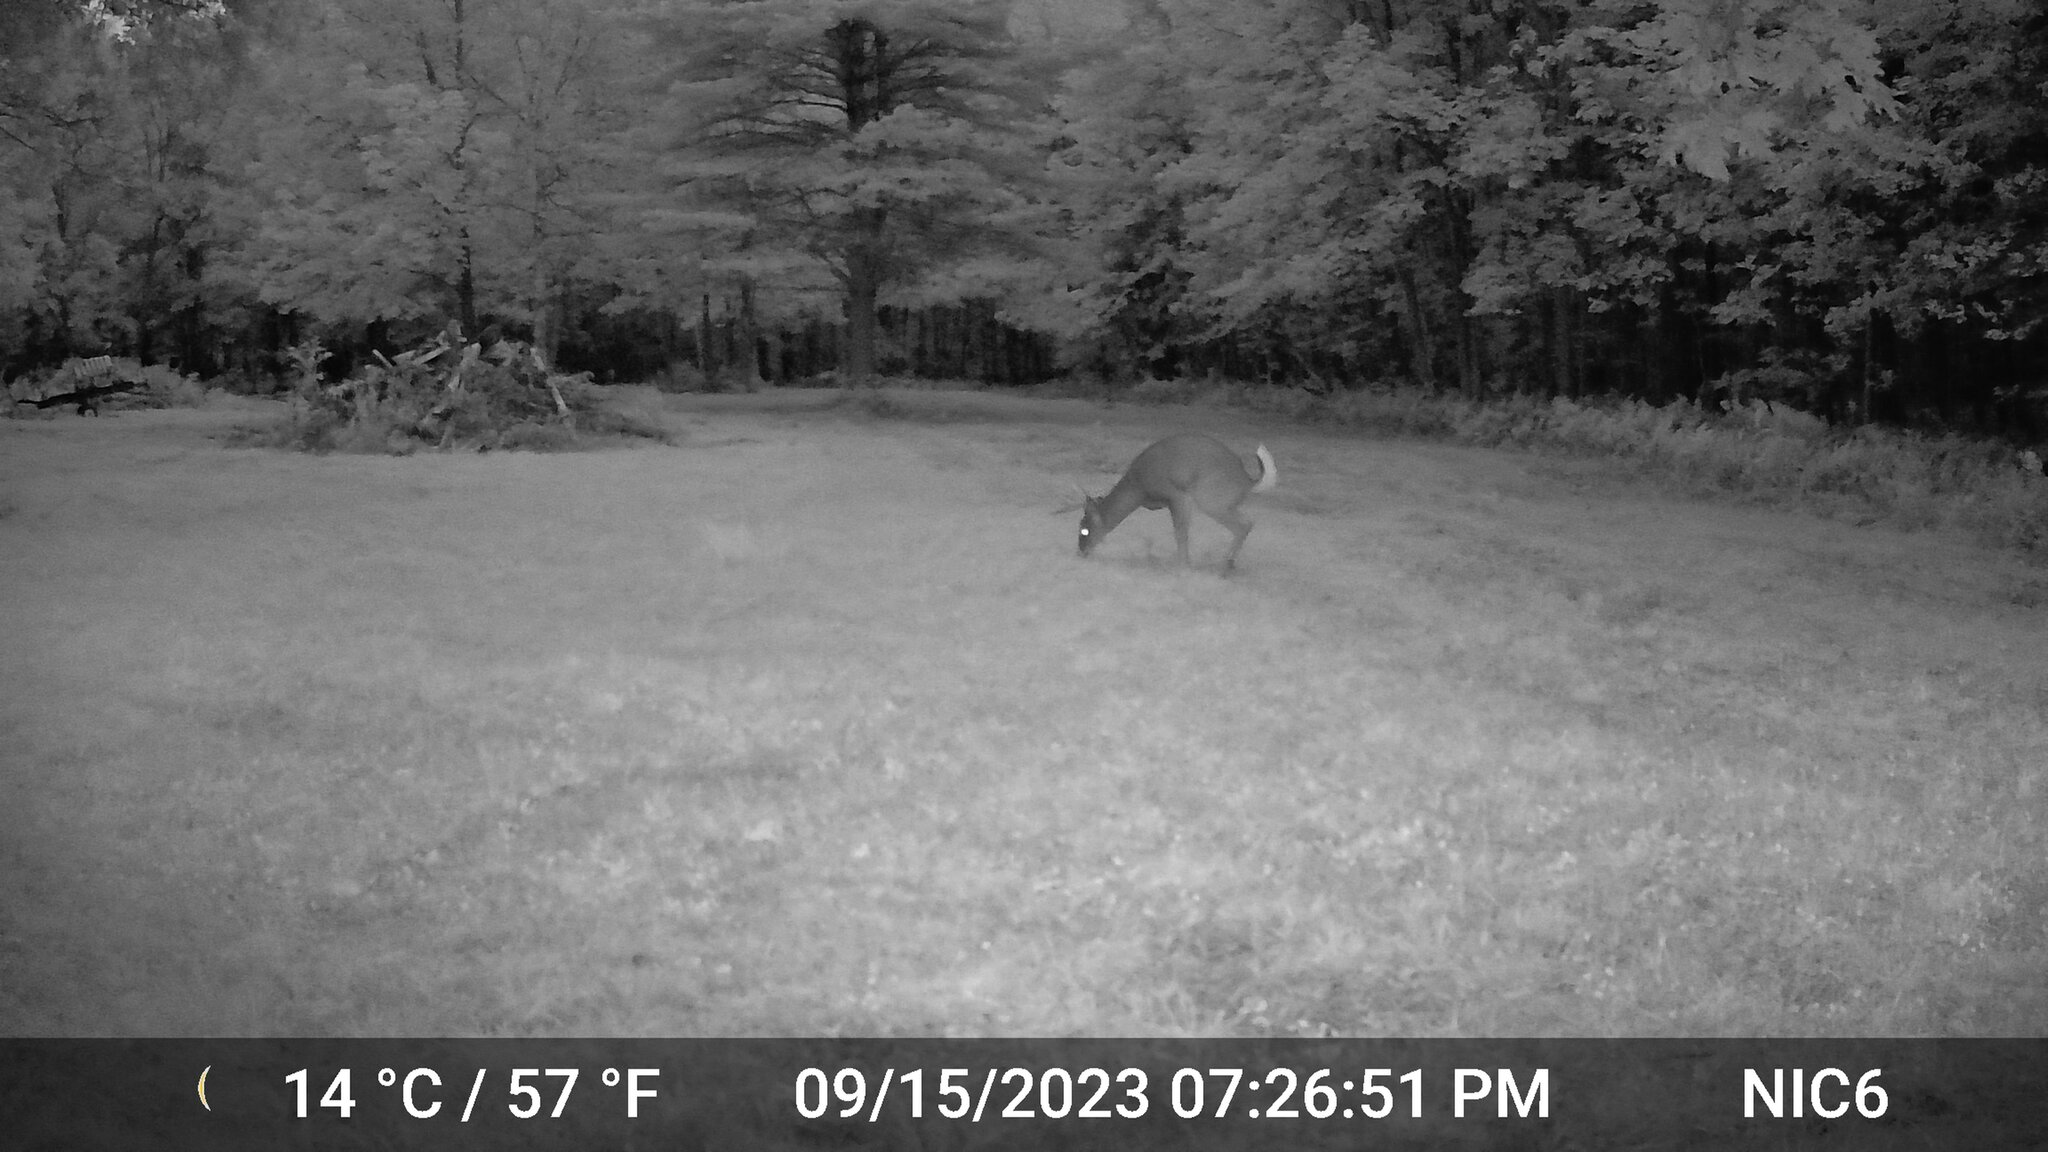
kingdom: Animalia
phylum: Chordata
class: Mammalia
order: Artiodactyla
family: Cervidae
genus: Odocoileus
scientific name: Odocoileus virginianus
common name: White-tailed deer
